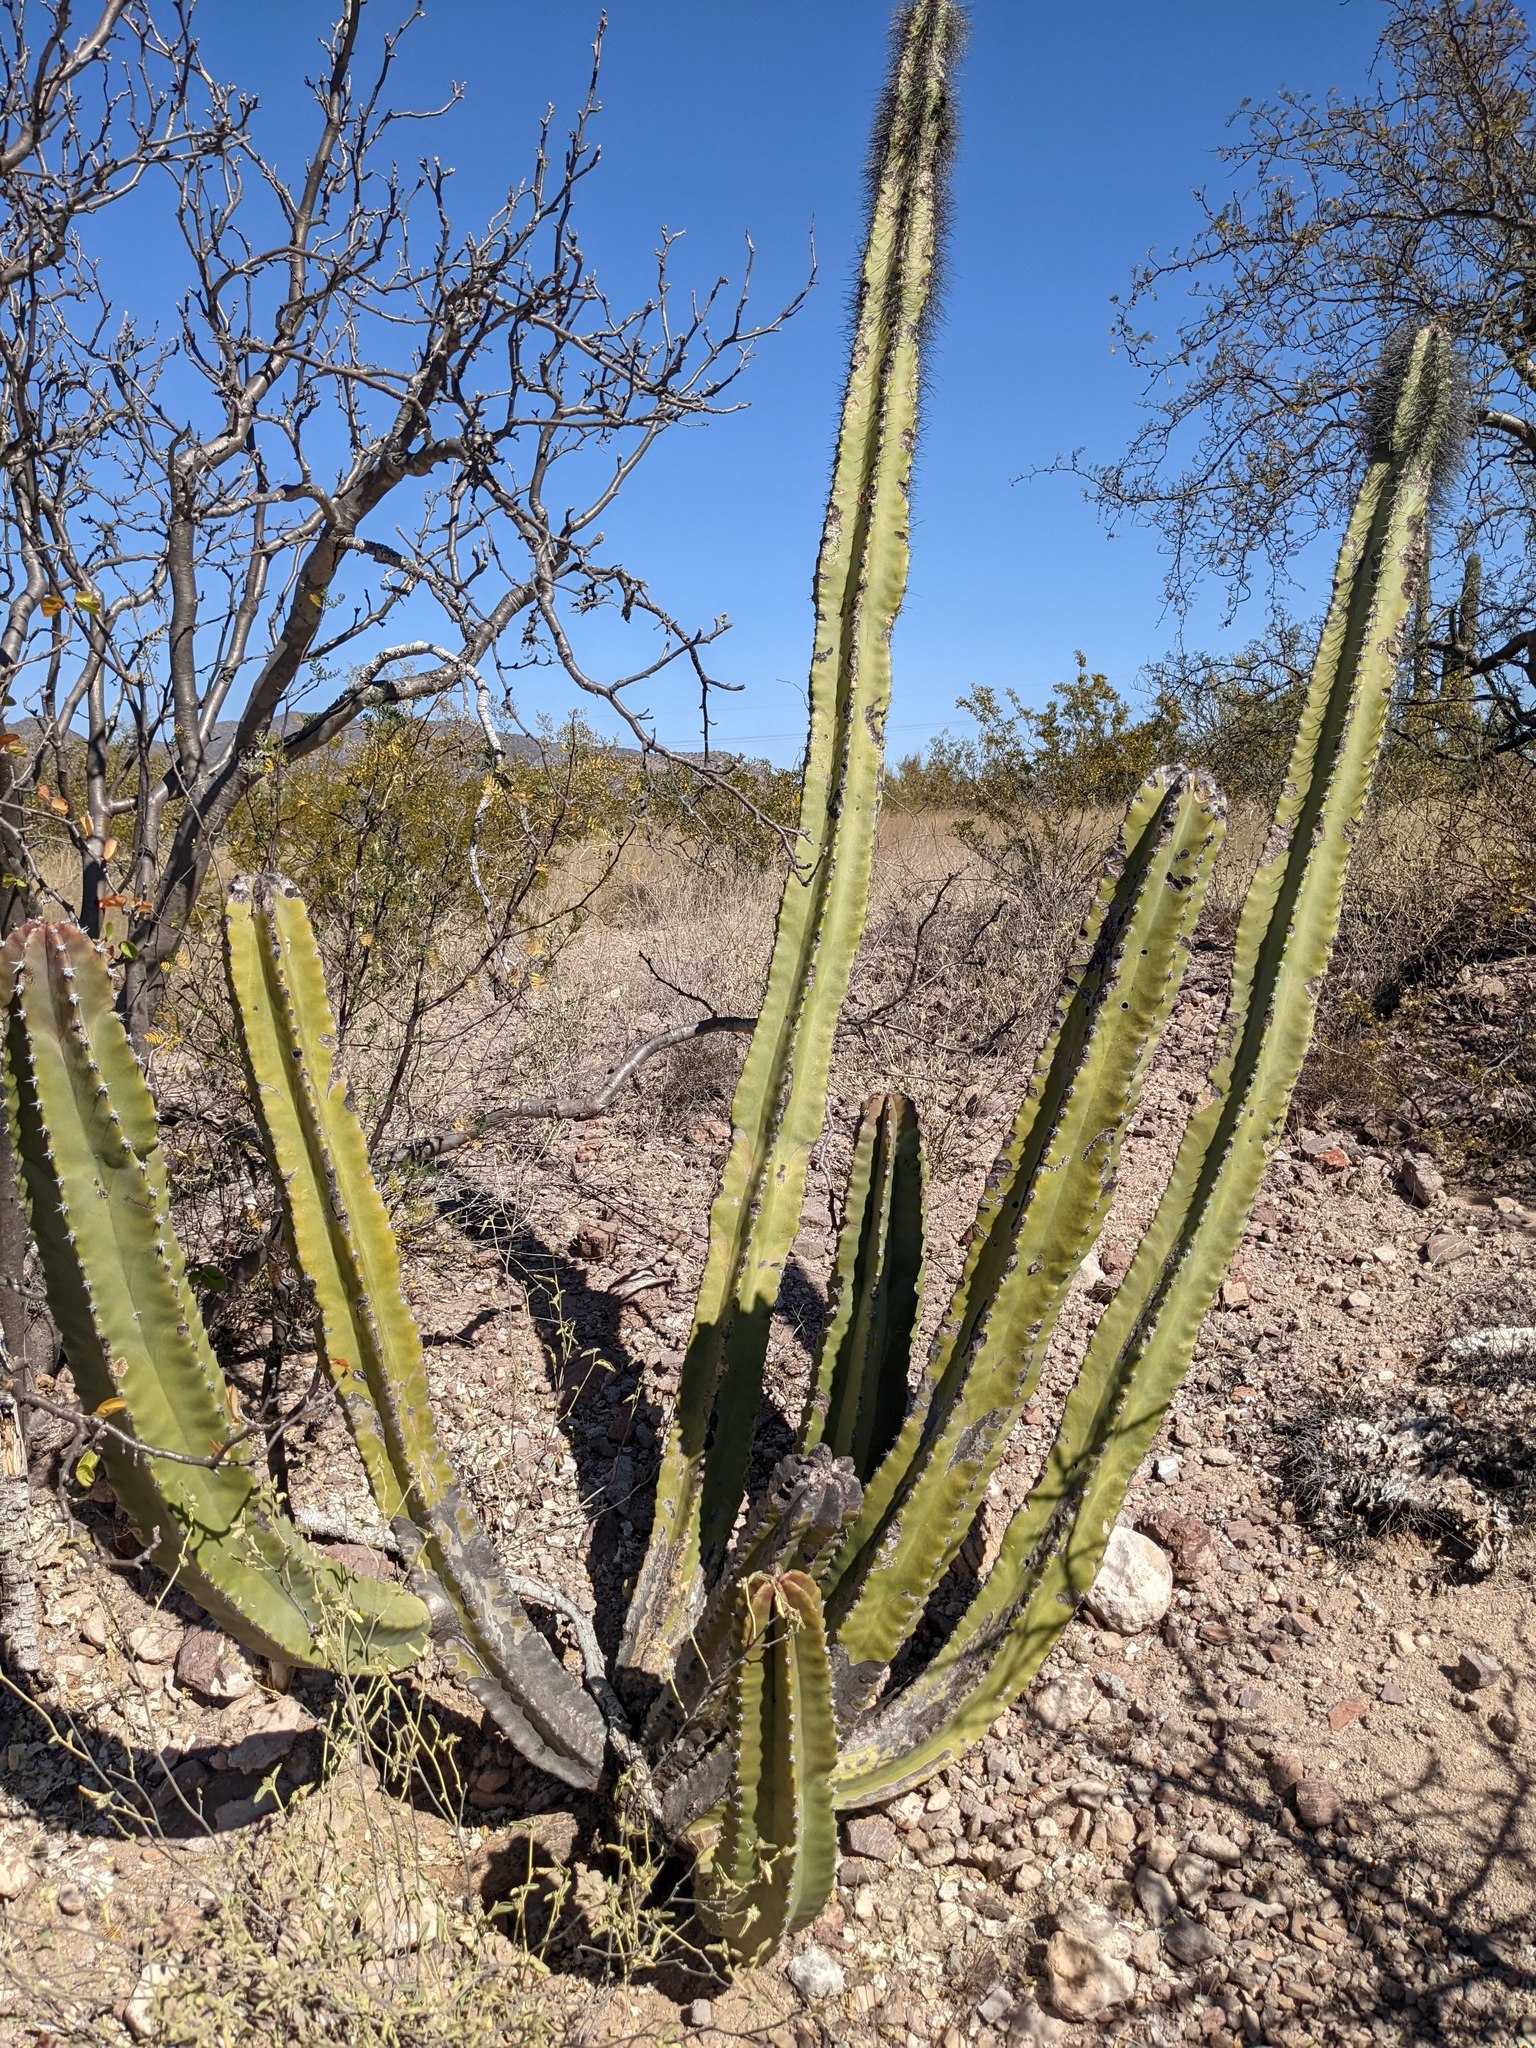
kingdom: Plantae
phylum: Tracheophyta
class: Magnoliopsida
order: Caryophyllales
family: Cactaceae
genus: Pachycereus
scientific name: Pachycereus schottii
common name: Senita cactus
